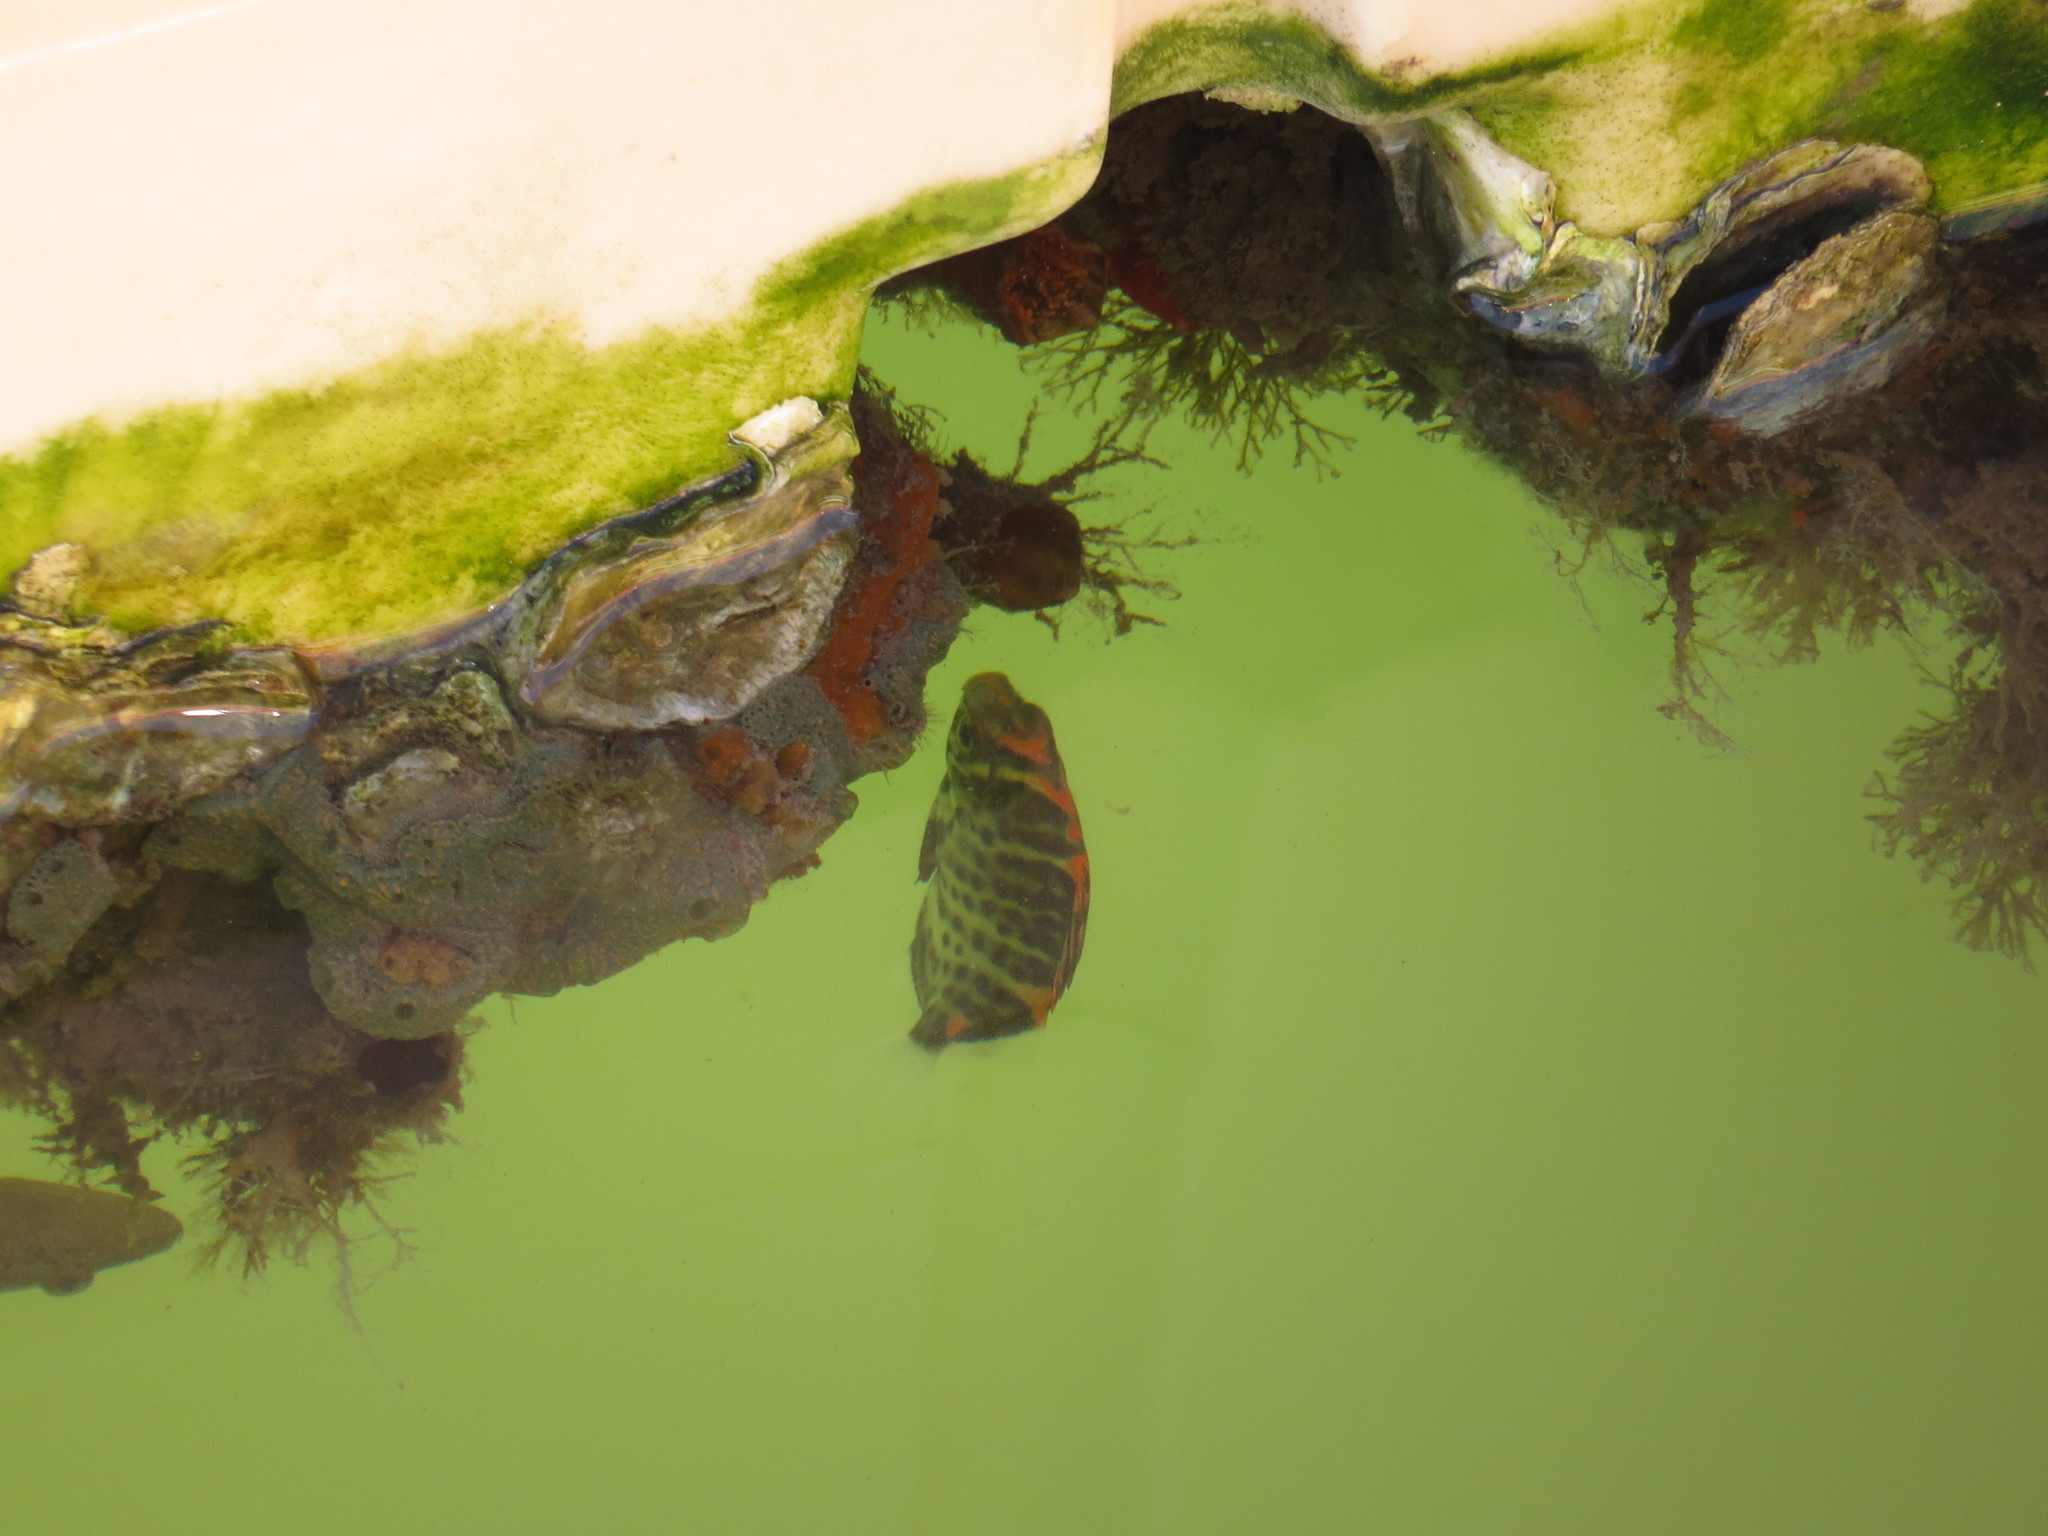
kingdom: Animalia
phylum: Chordata
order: Perciformes
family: Scatophagidae
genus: Scatophagus
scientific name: Scatophagus argus
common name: Spotted scat
